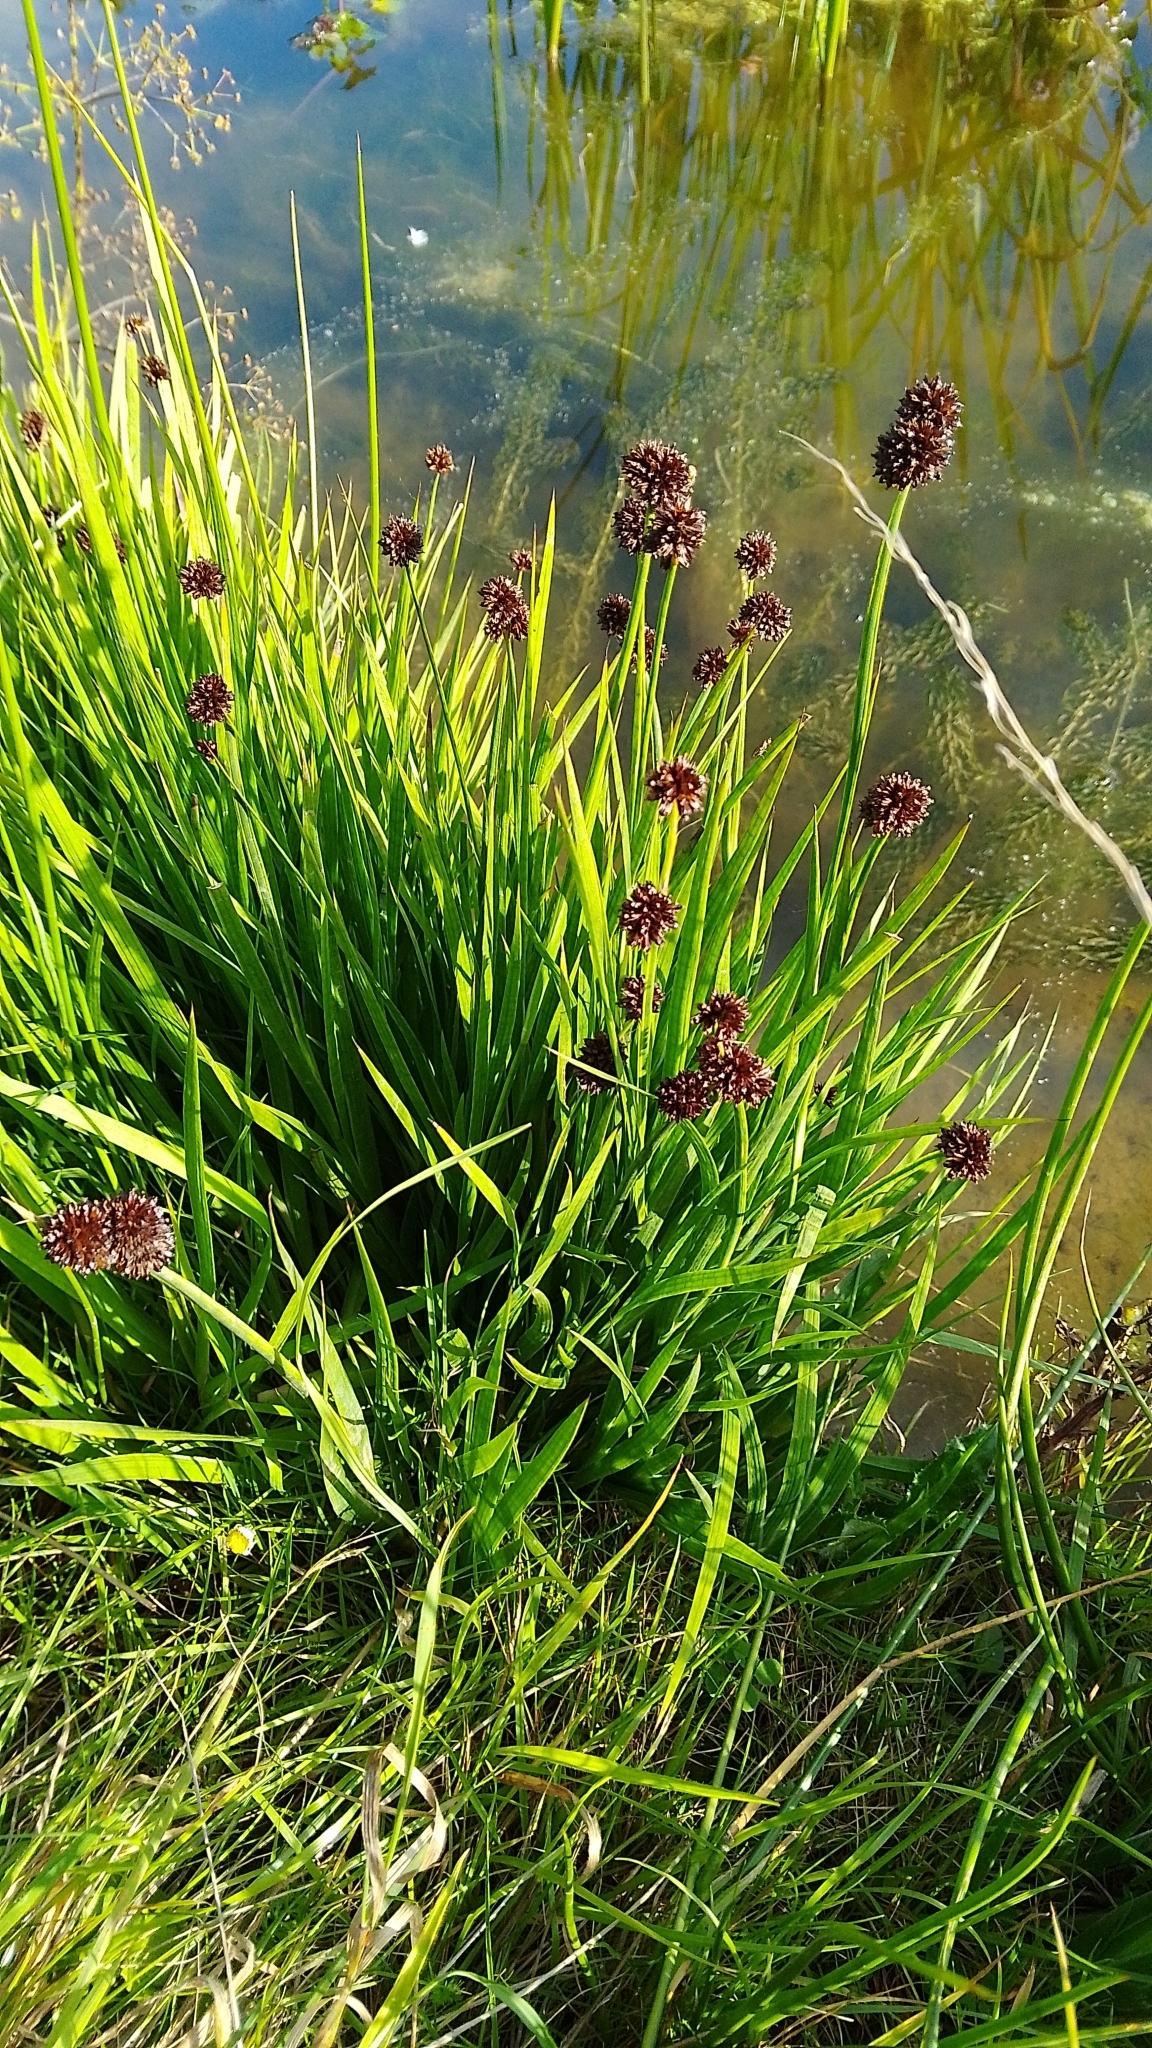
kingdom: Plantae
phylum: Tracheophyta
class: Liliopsida
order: Poales
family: Juncaceae
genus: Juncus
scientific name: Juncus ensifolius
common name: Sword-leaved rush
